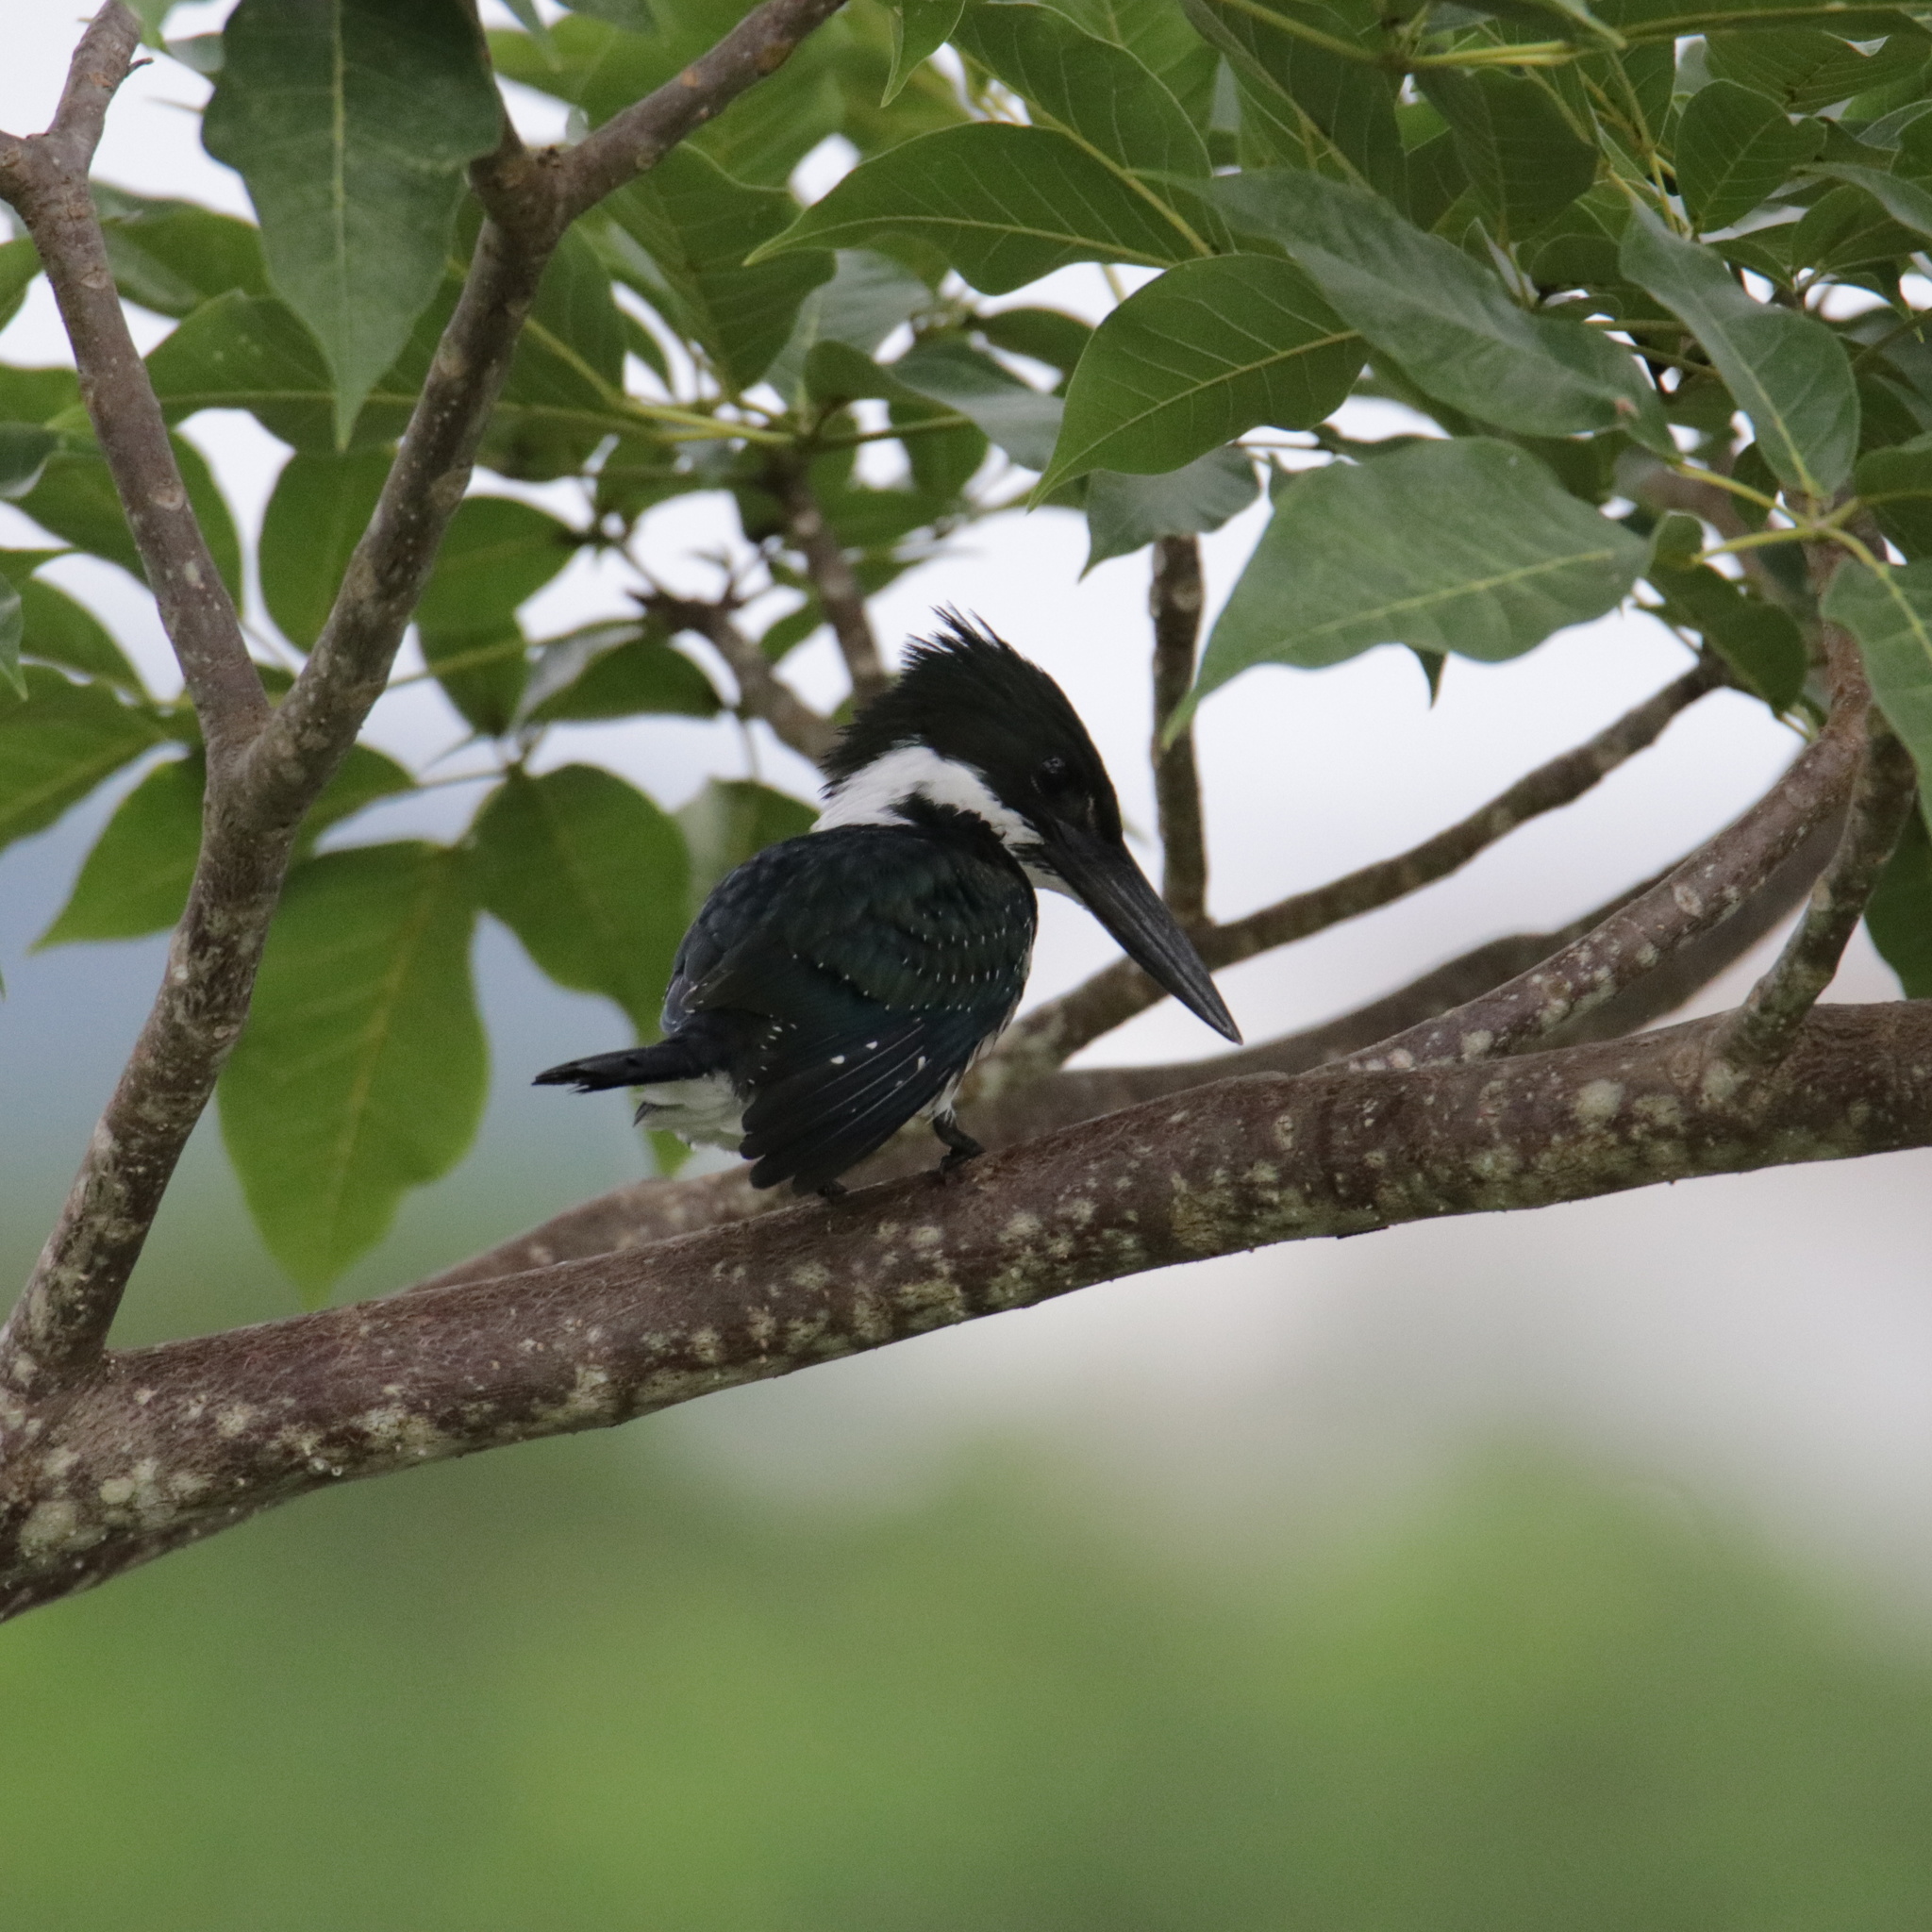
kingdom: Animalia
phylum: Chordata
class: Aves
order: Coraciiformes
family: Alcedinidae
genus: Chloroceryle
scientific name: Chloroceryle americana
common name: Green kingfisher
